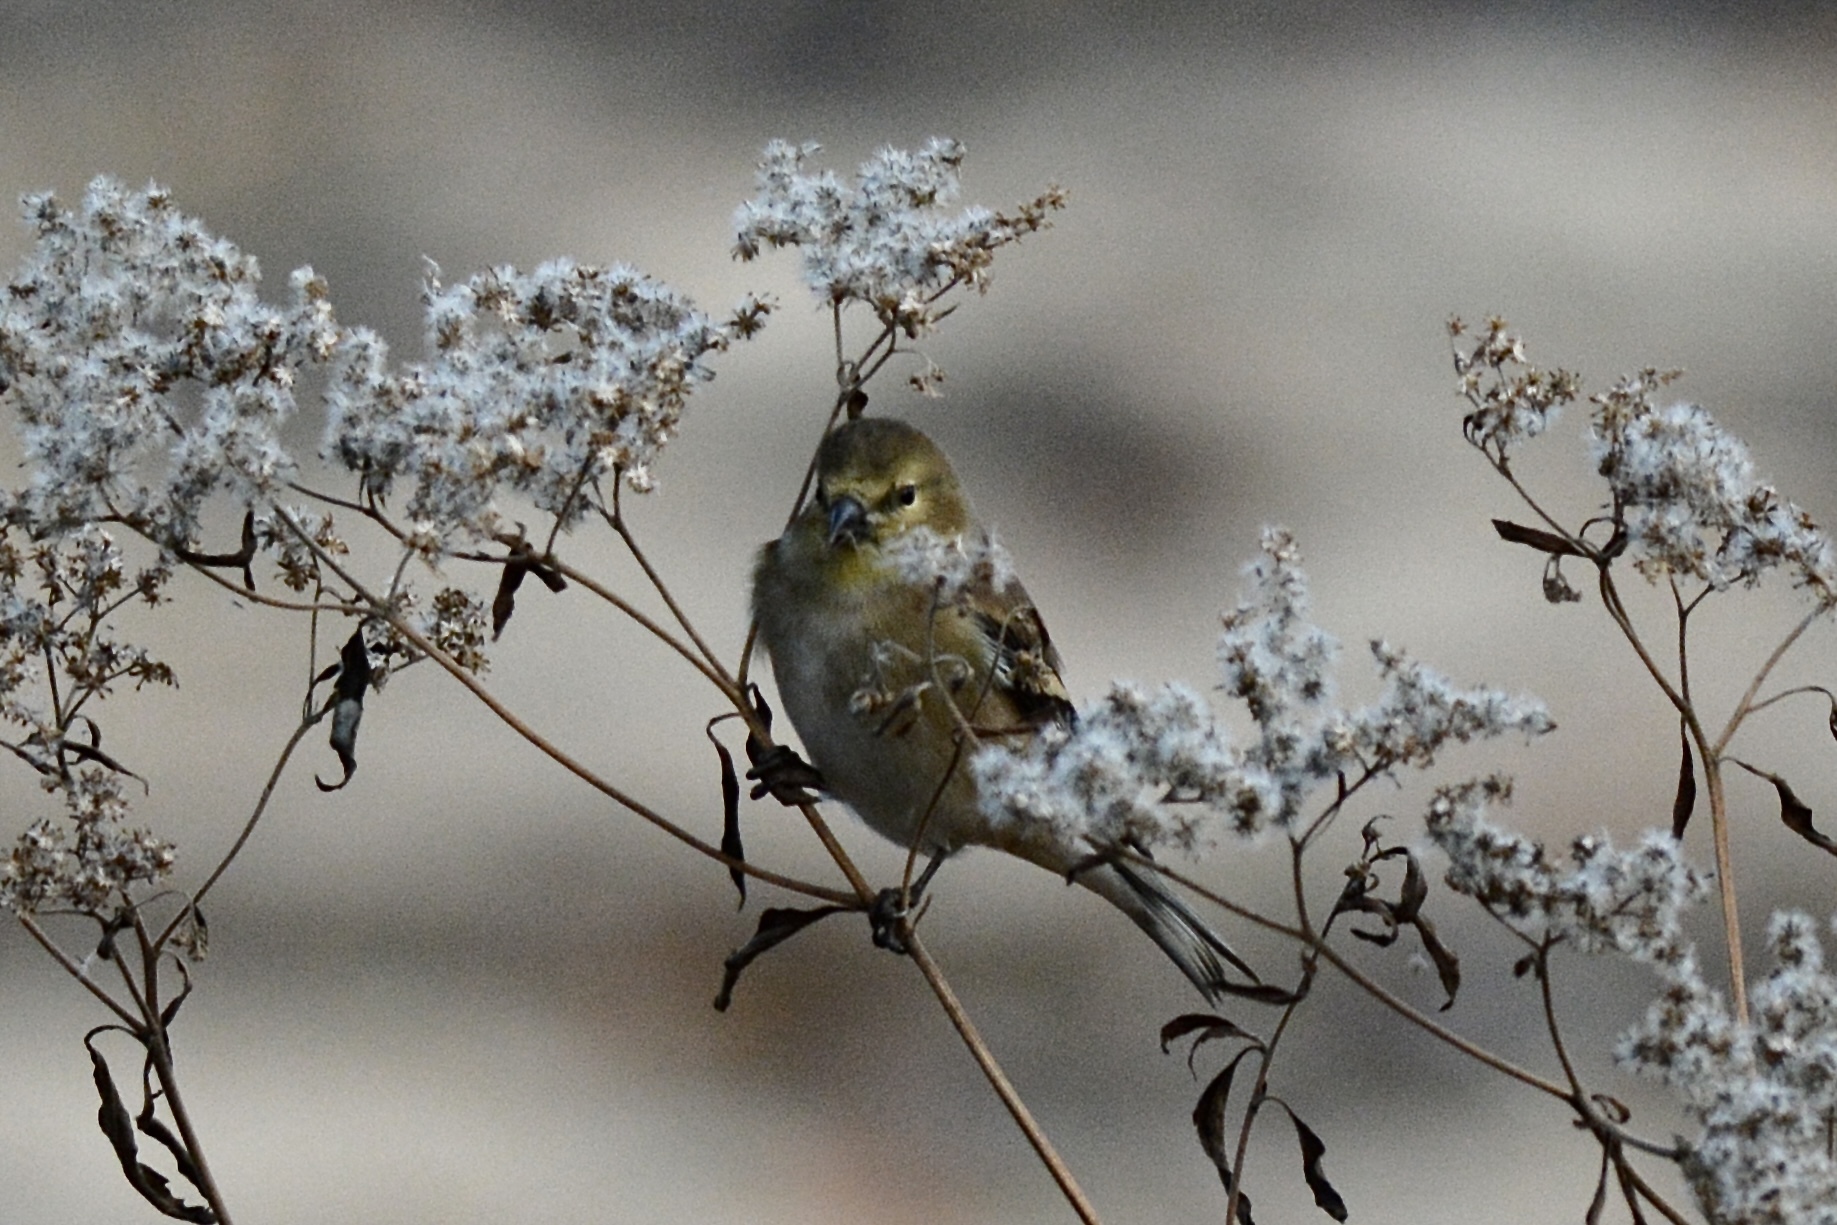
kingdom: Animalia
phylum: Chordata
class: Aves
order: Passeriformes
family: Fringillidae
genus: Spinus
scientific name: Spinus tristis
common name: American goldfinch
